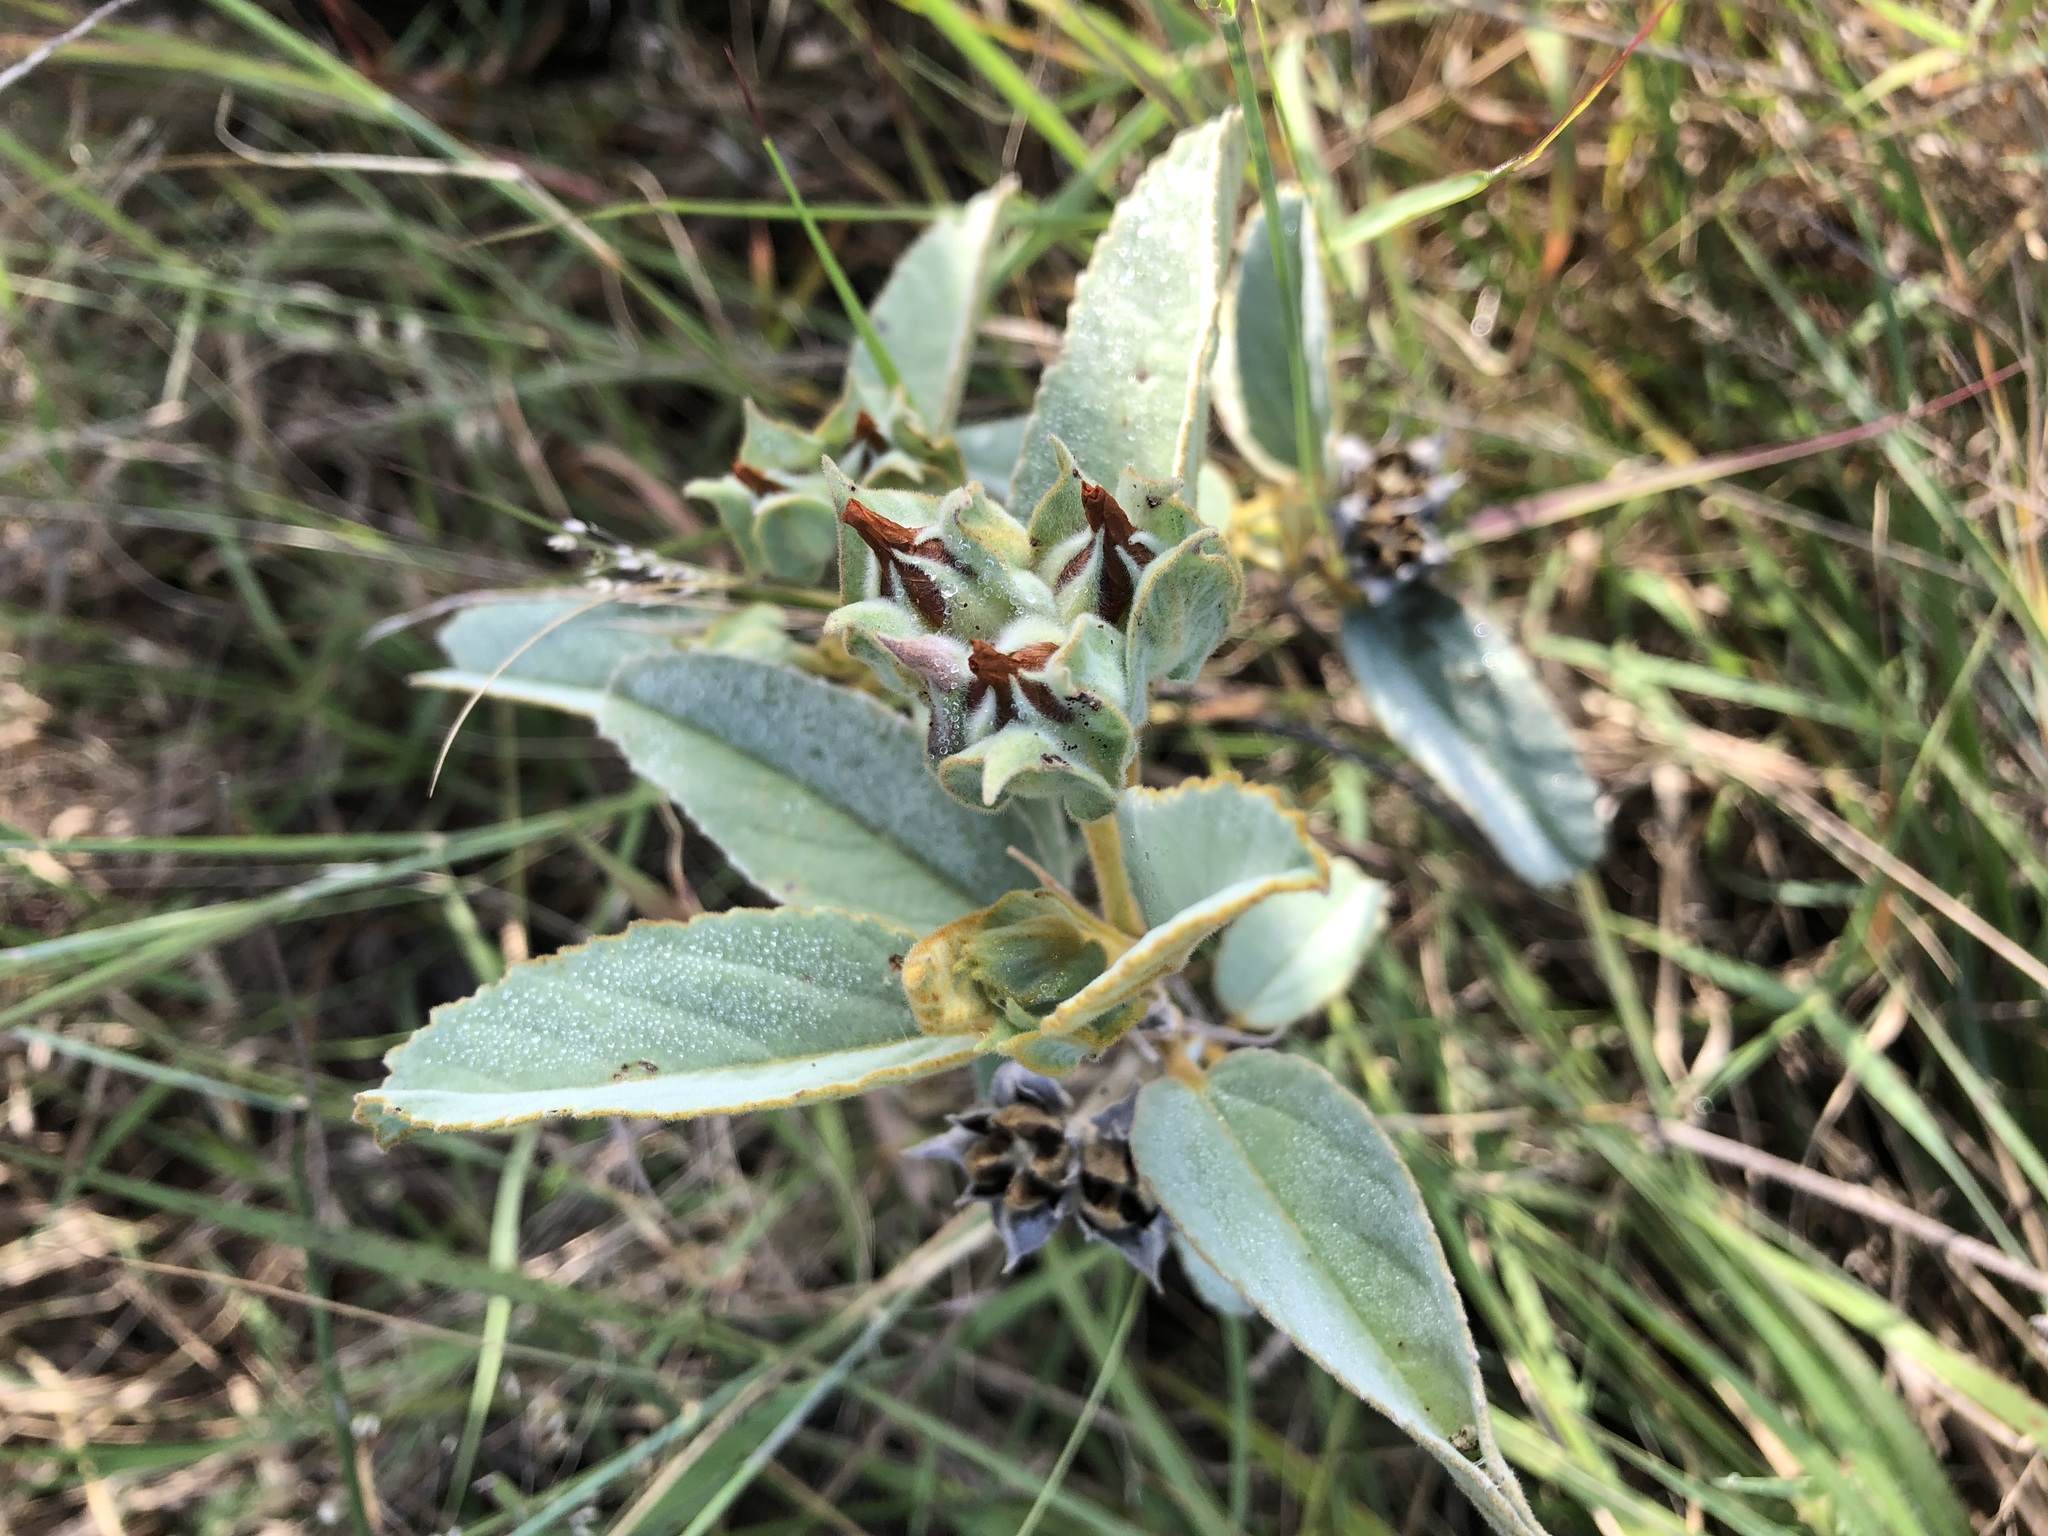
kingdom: Plantae
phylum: Tracheophyta
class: Magnoliopsida
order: Malvales
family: Malvaceae
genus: Melhania
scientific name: Melhania forbesii
